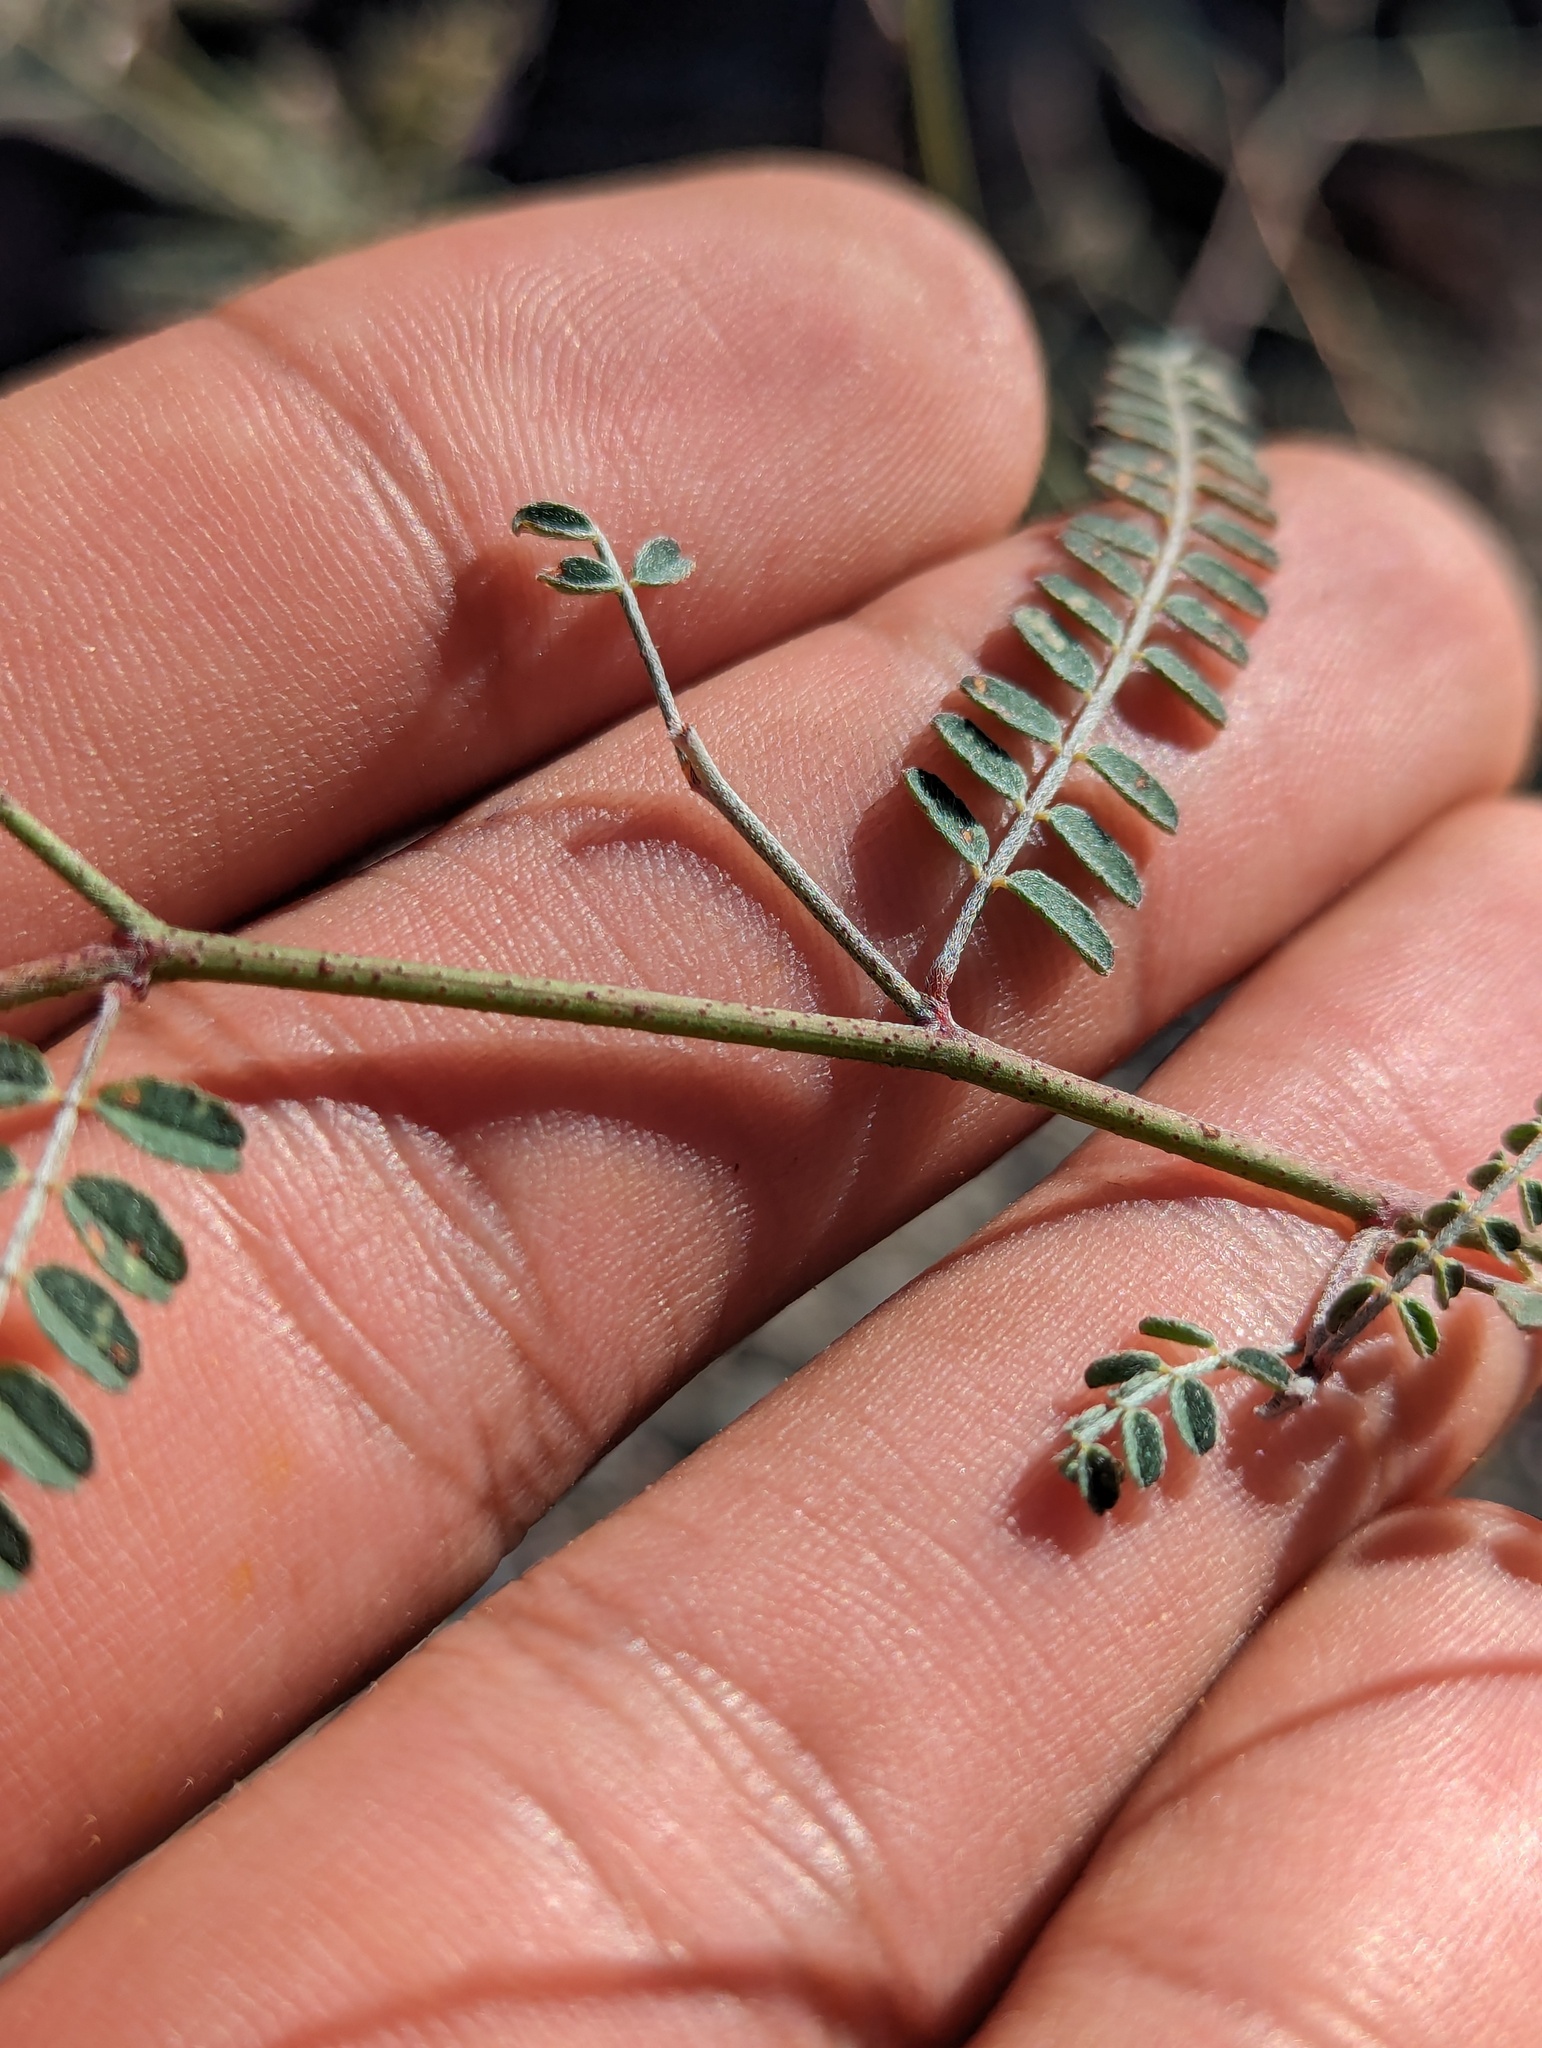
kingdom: Plantae
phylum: Tracheophyta
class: Magnoliopsida
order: Fabales
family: Fabaceae
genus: Marina
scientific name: Marina parryi
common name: Parry's marina
